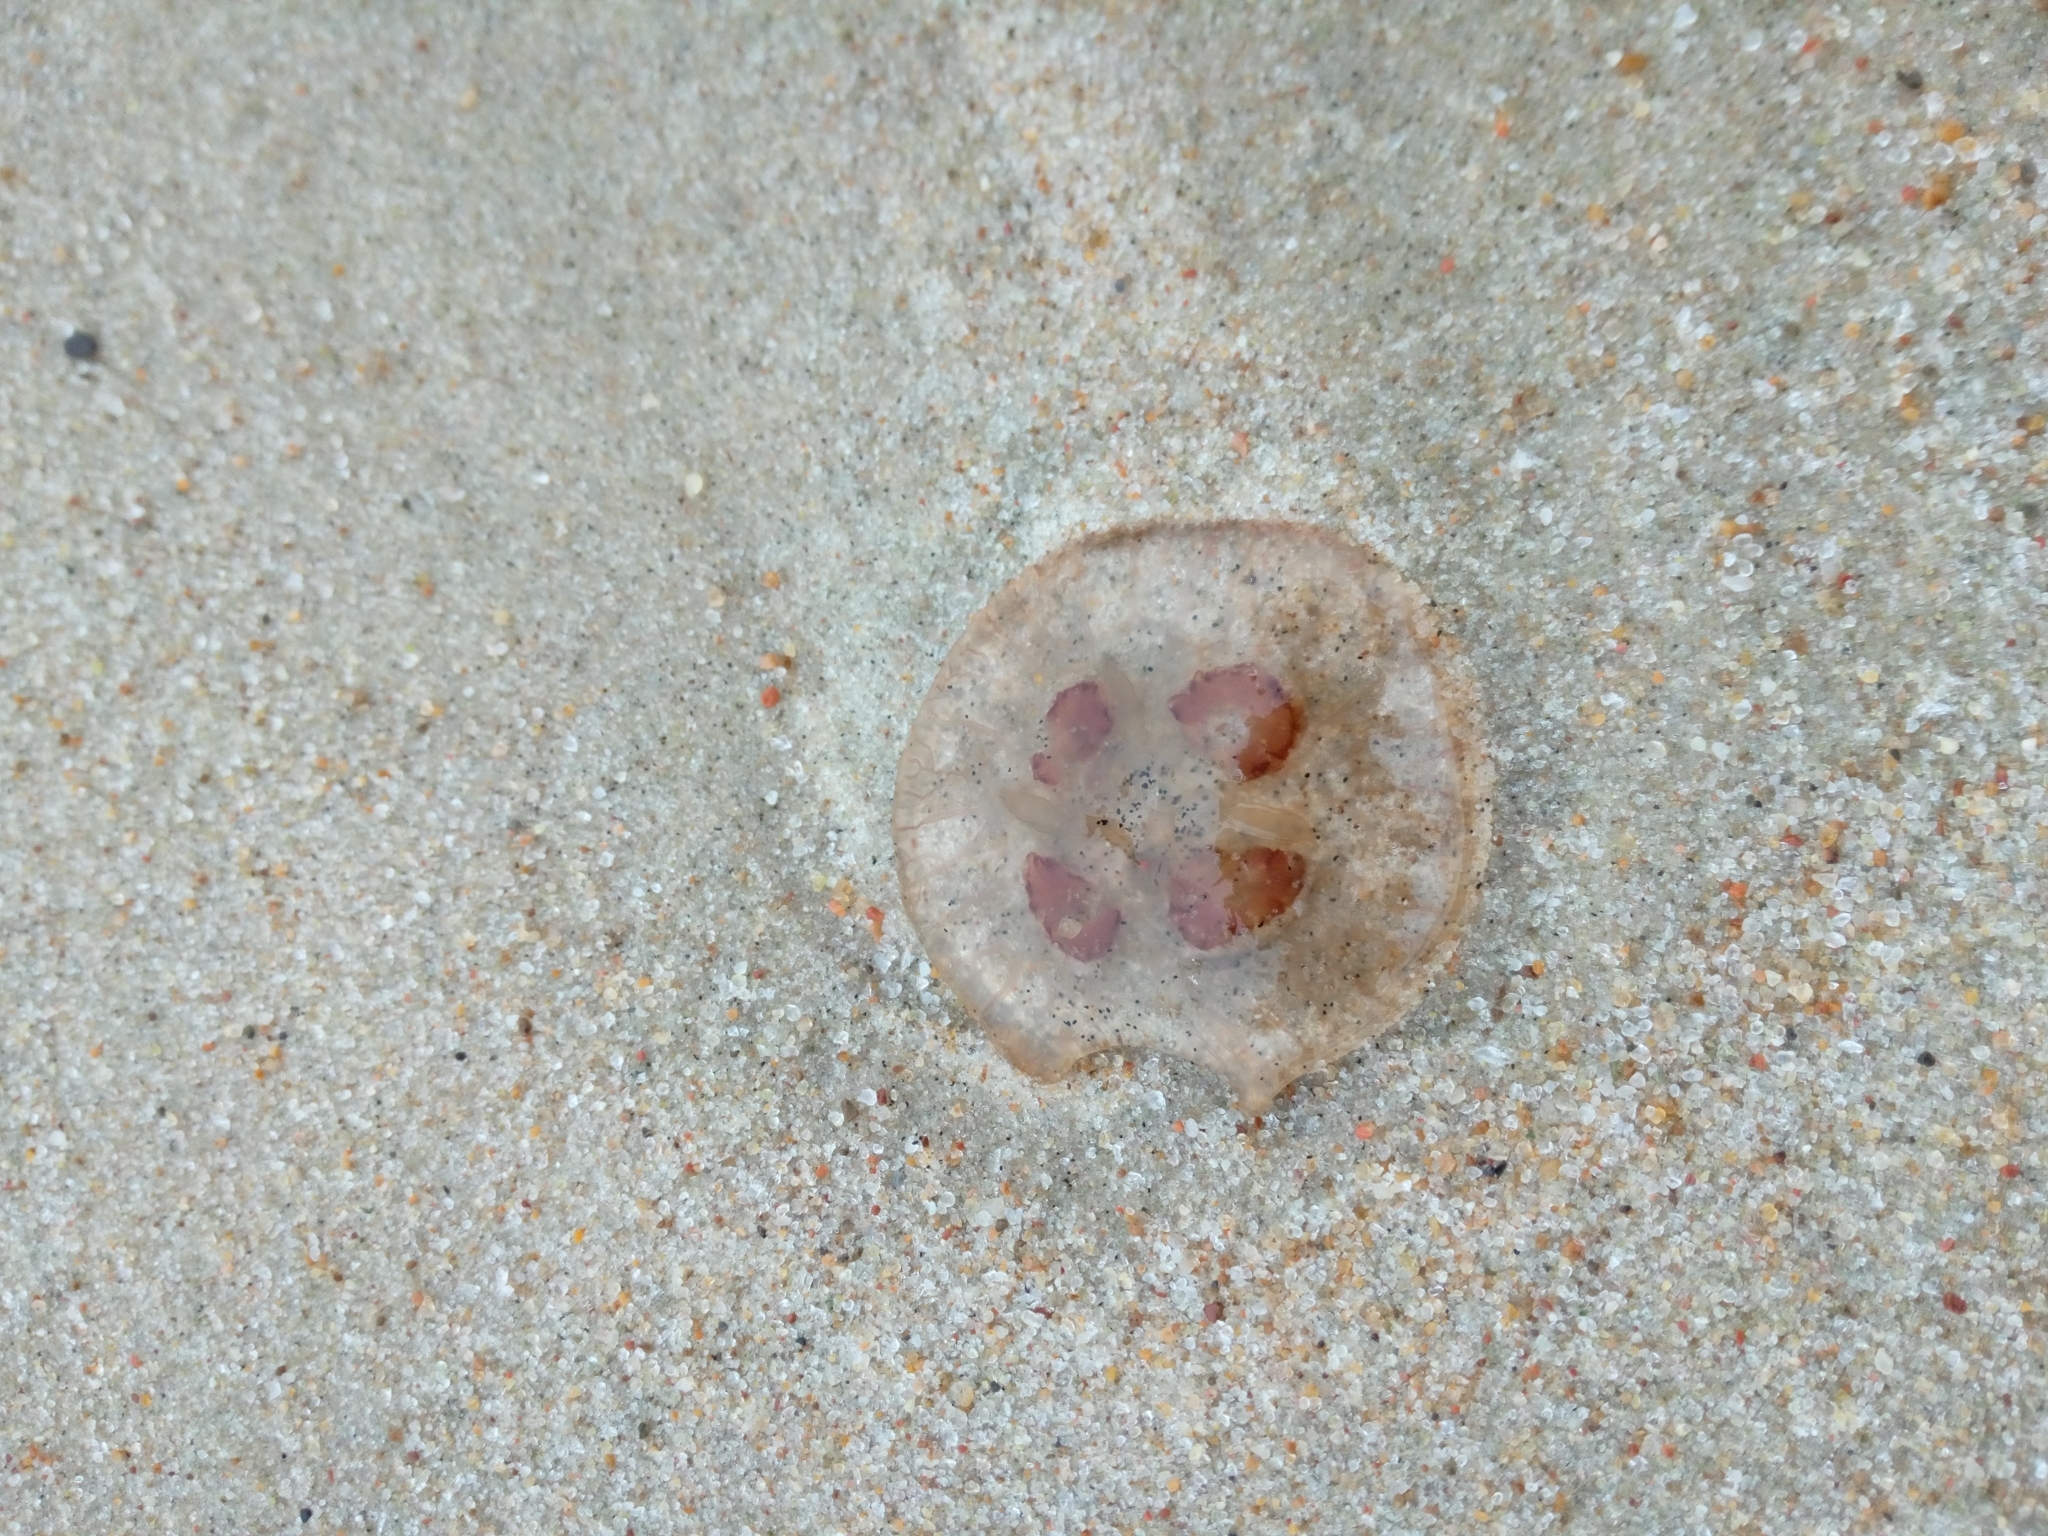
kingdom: Animalia
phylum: Cnidaria
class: Scyphozoa
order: Semaeostomeae
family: Ulmaridae
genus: Aurelia
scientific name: Aurelia aurita
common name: Moon jellyfish
